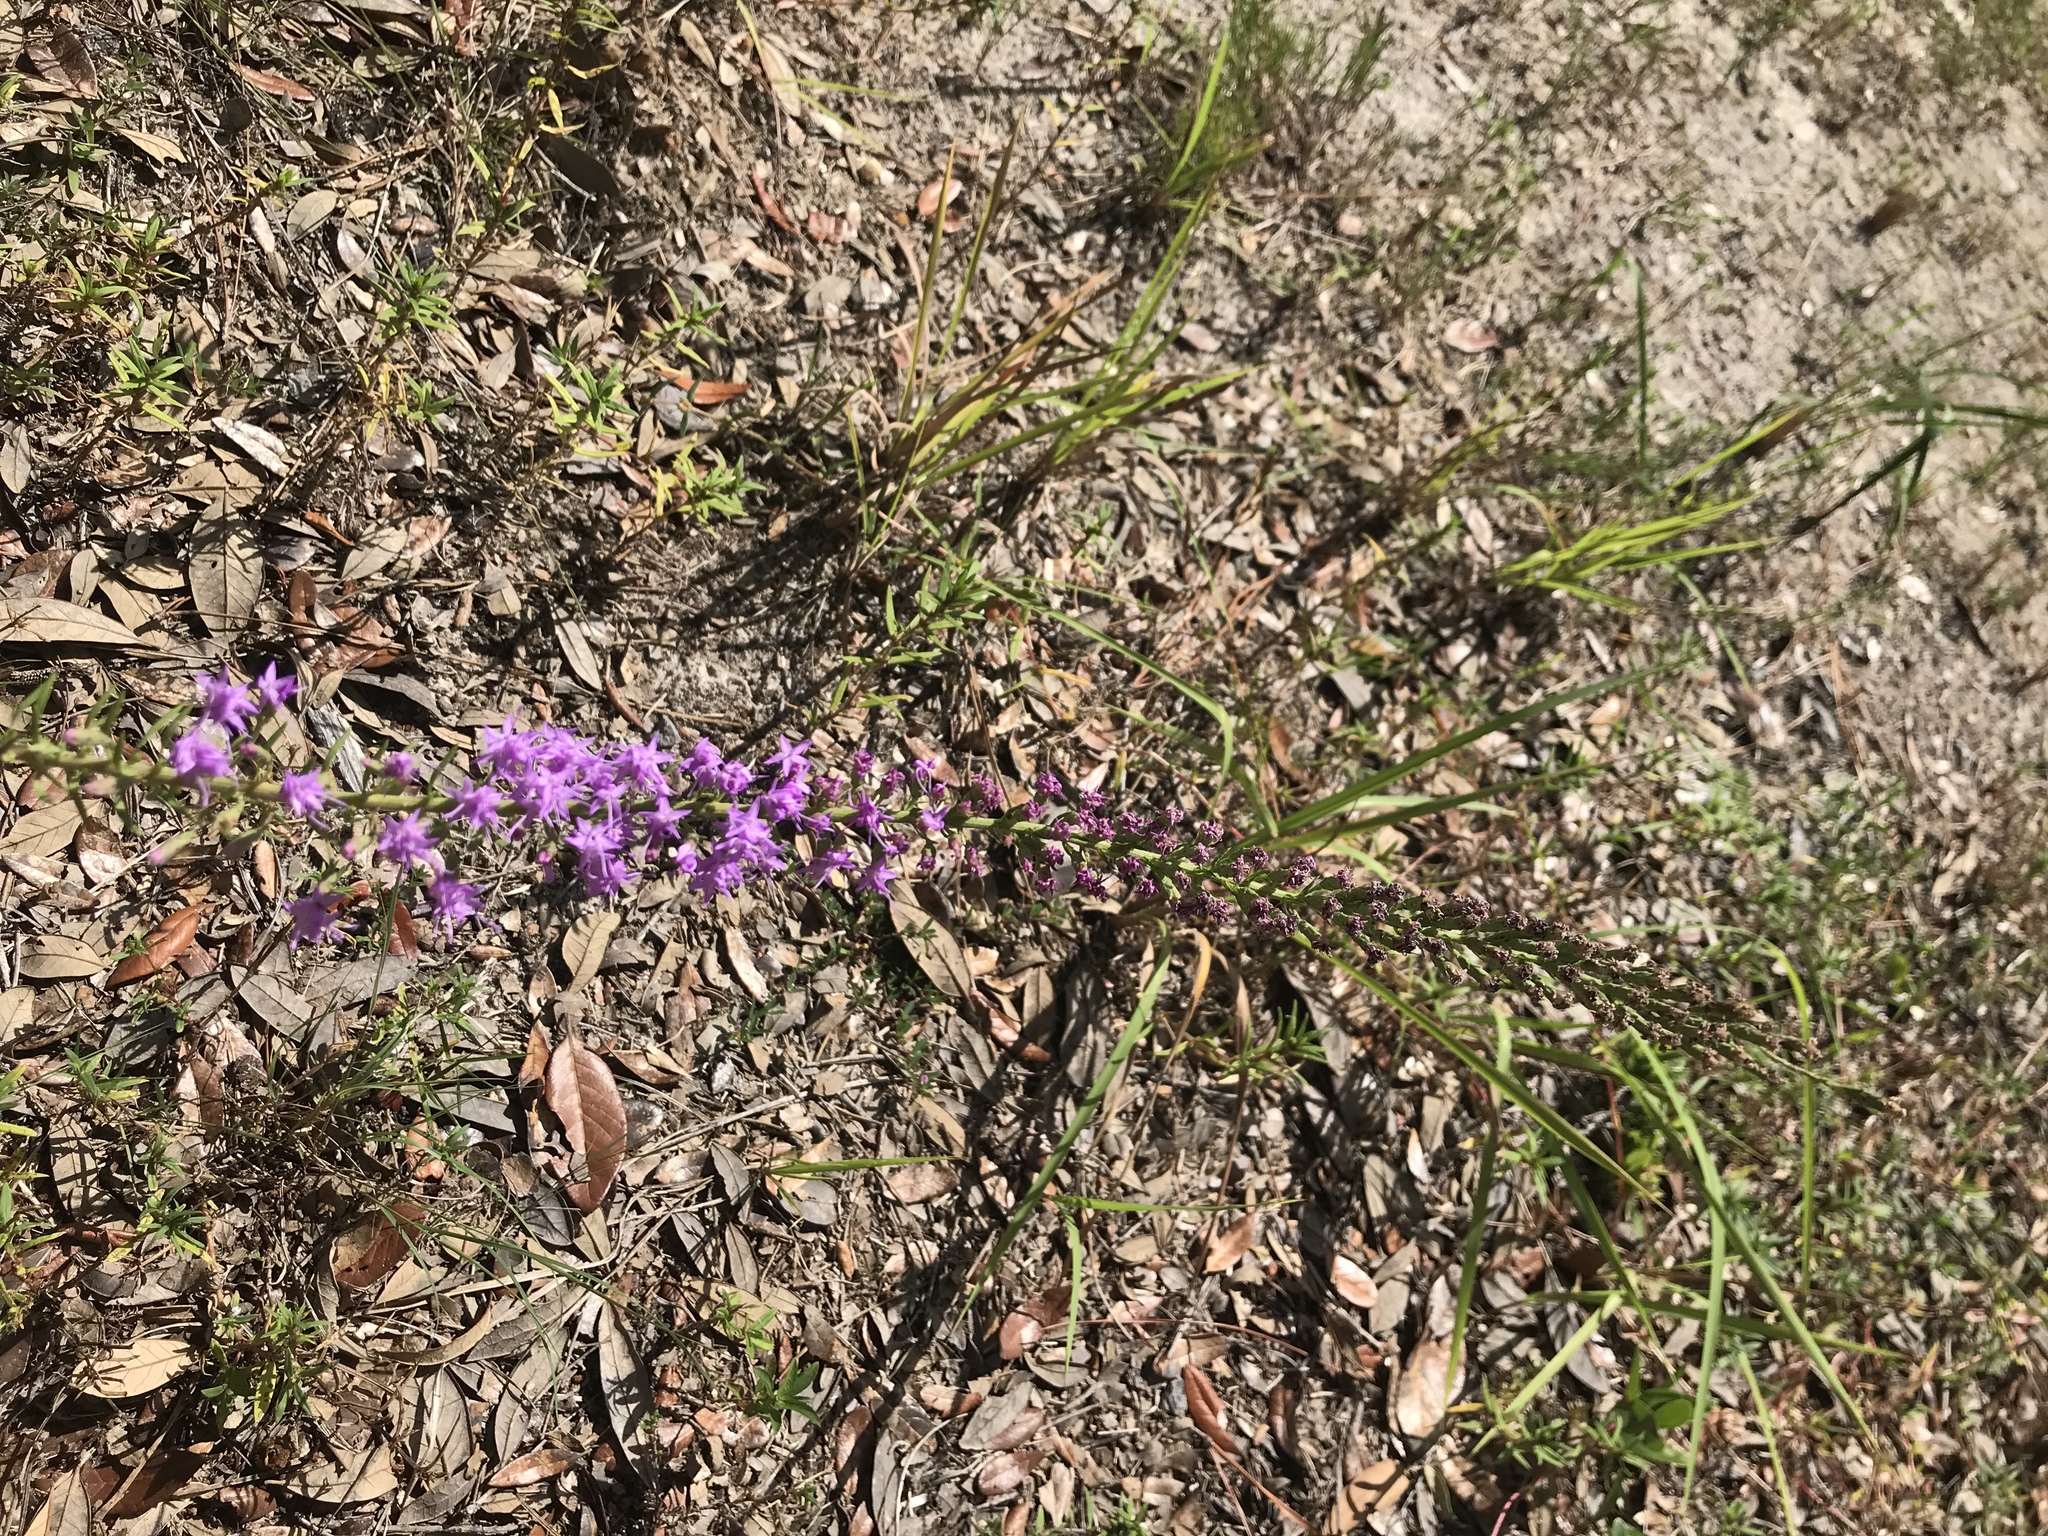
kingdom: Plantae
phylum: Tracheophyta
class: Magnoliopsida
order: Asterales
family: Asteraceae
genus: Liatris
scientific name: Liatris pauciflora
